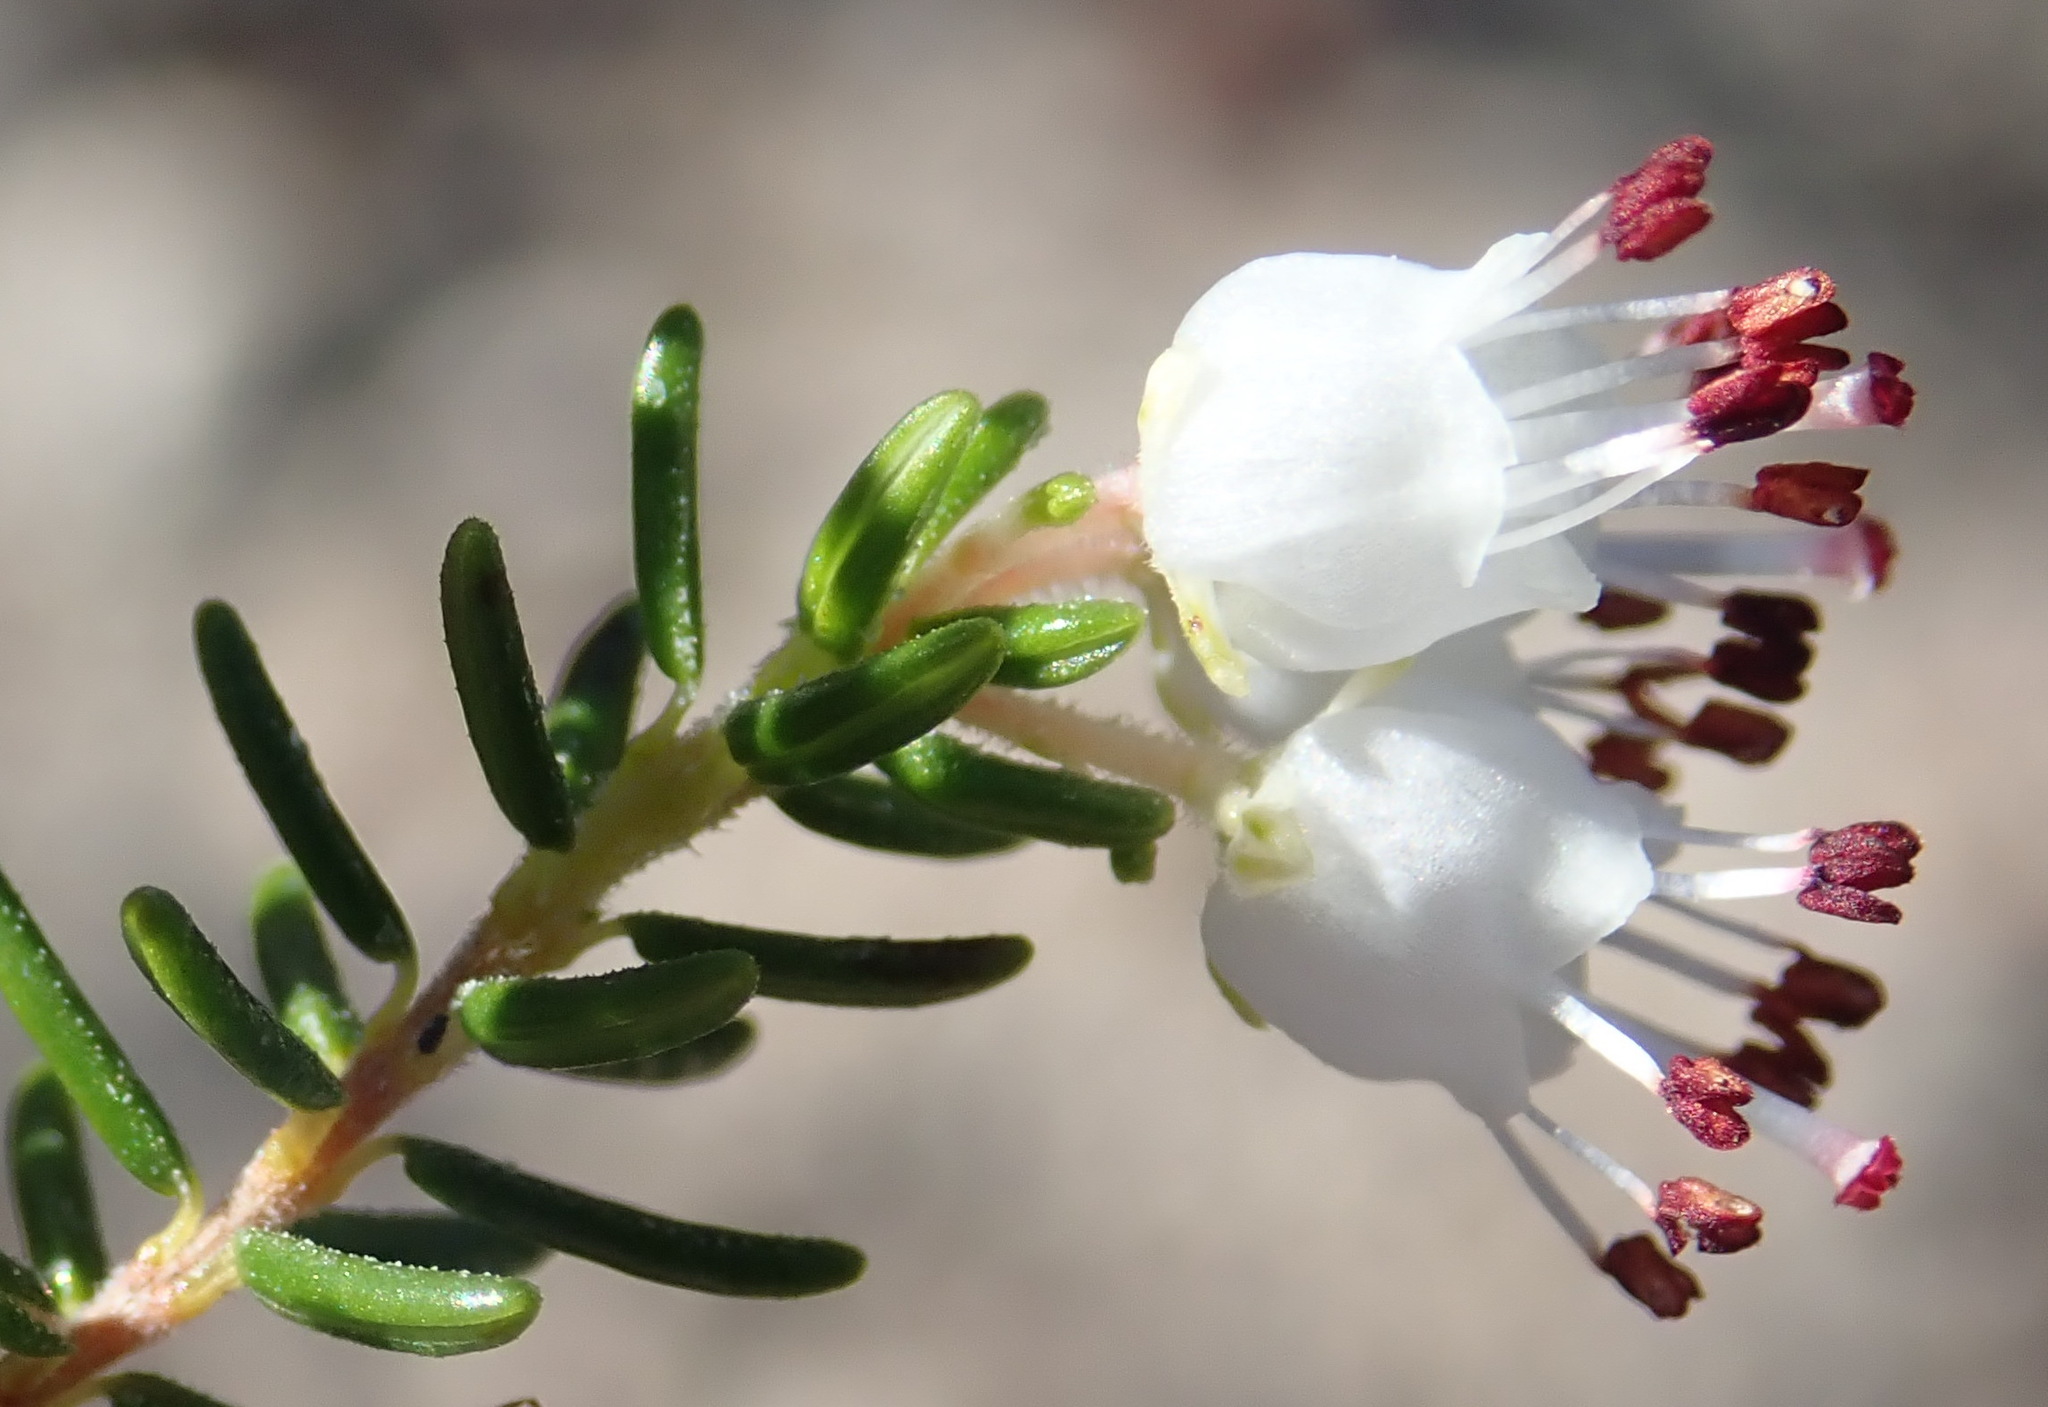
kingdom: Plantae
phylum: Tracheophyta
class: Magnoliopsida
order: Ericales
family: Ericaceae
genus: Erica
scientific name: Erica trivialis
